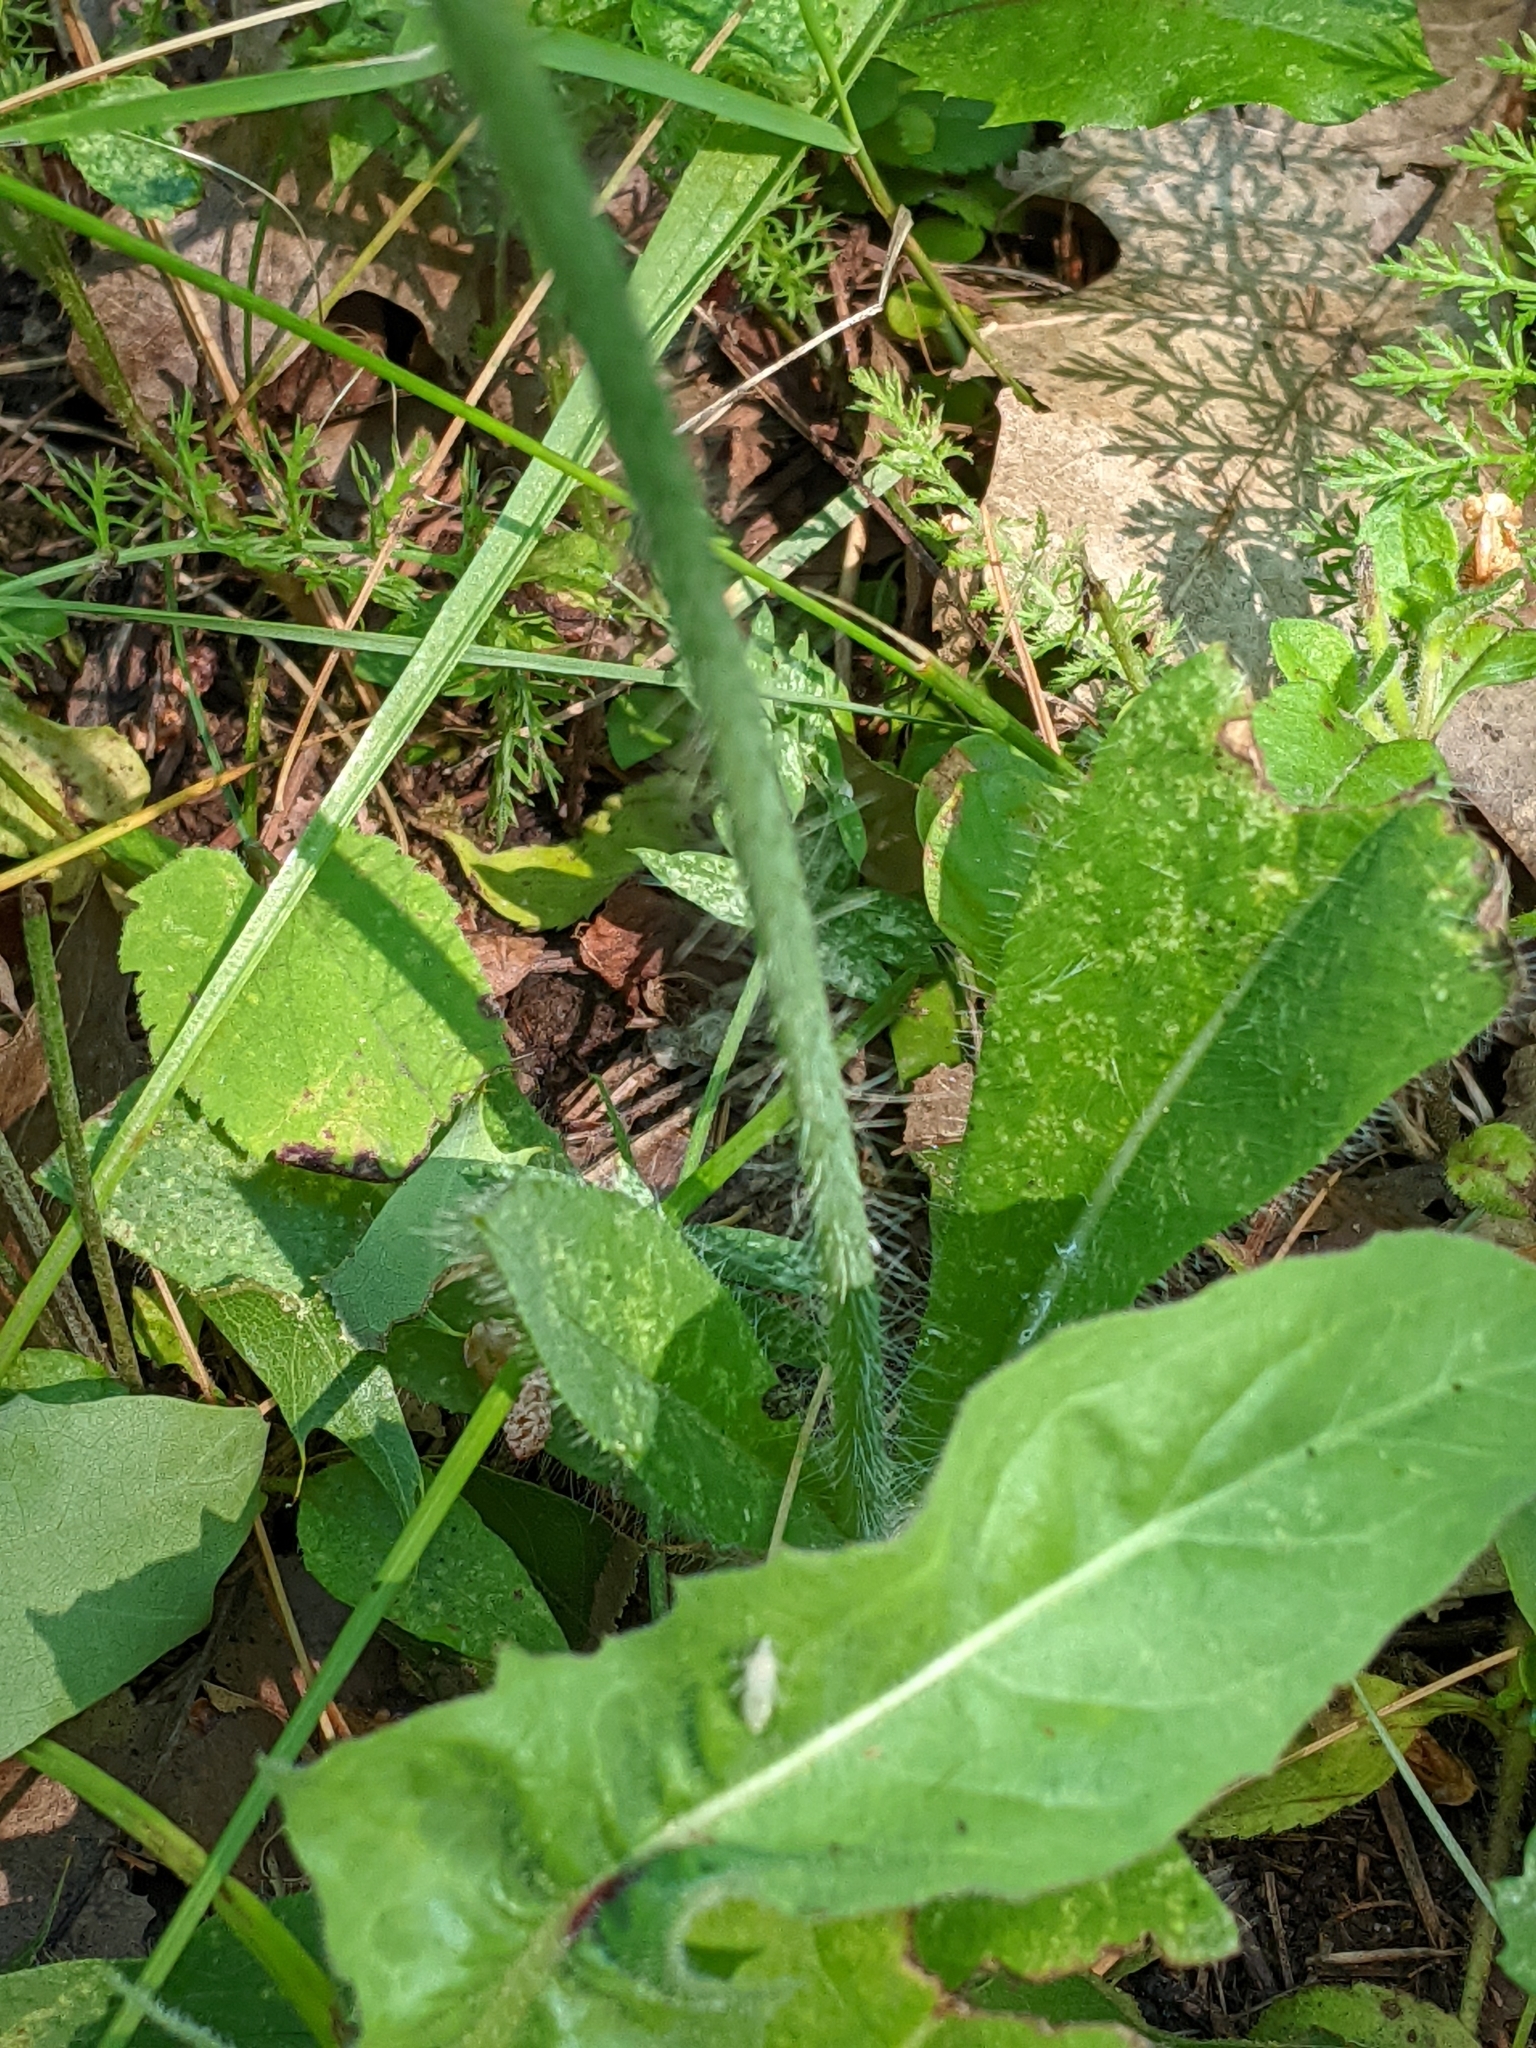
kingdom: Plantae
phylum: Tracheophyta
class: Magnoliopsida
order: Asterales
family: Asteraceae
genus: Pilosella
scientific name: Pilosella aurantiaca
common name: Fox-and-cubs
